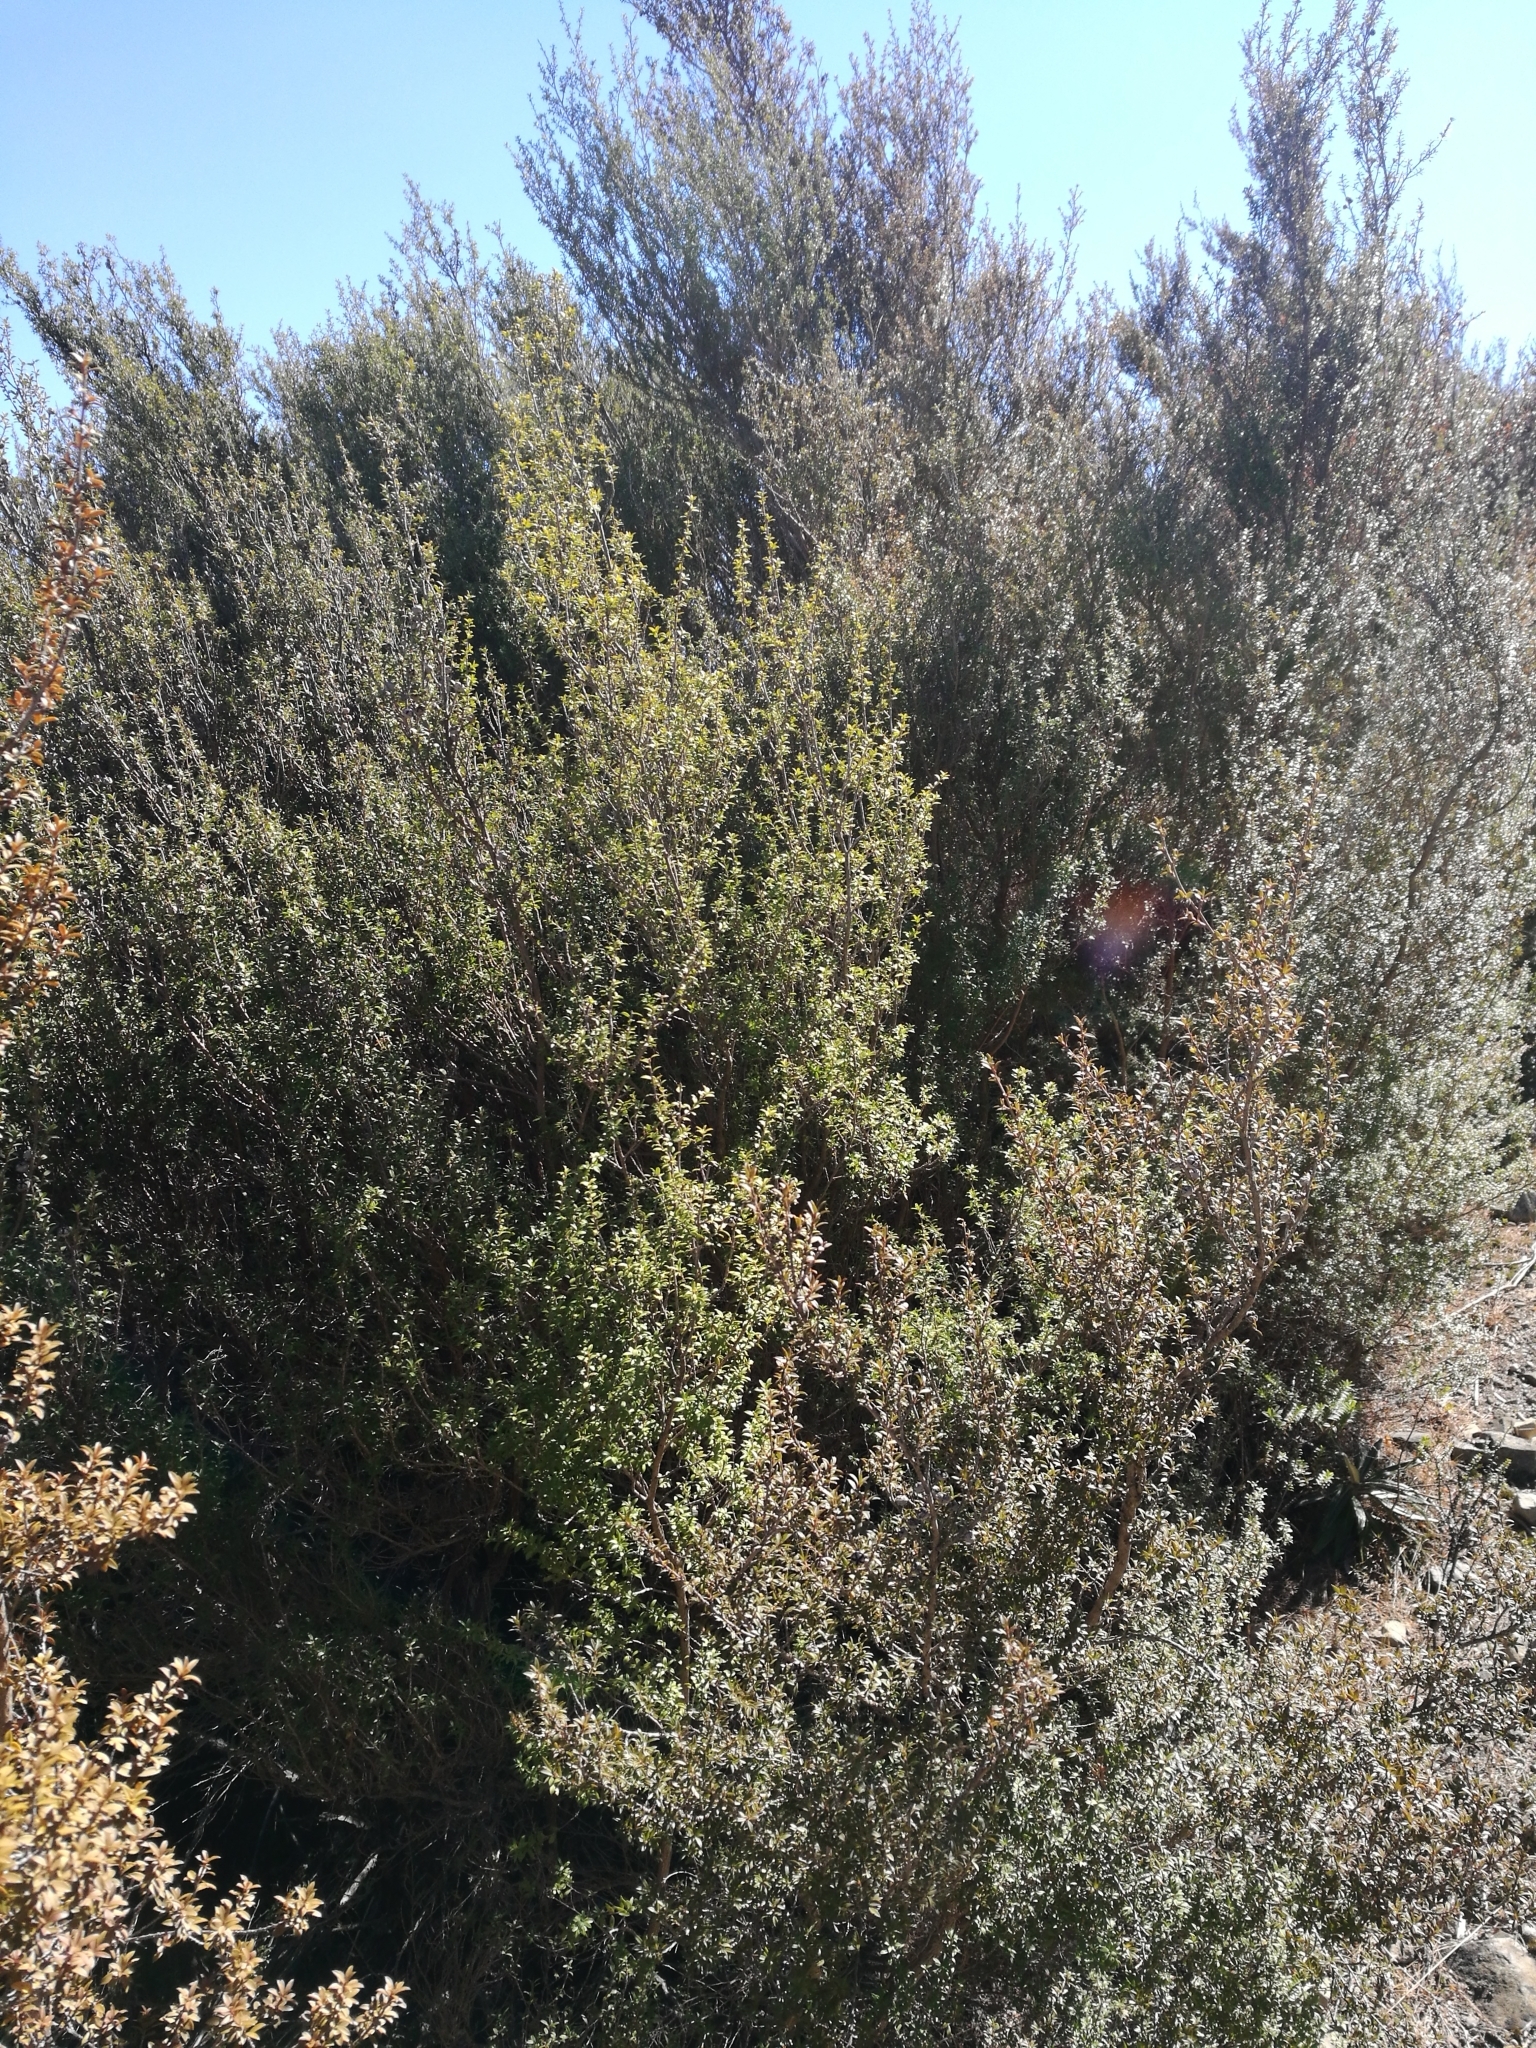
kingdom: Plantae
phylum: Tracheophyta
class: Magnoliopsida
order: Myrtales
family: Myrtaceae
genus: Leptospermum
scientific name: Leptospermum scoparium
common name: Broom tea-tree
